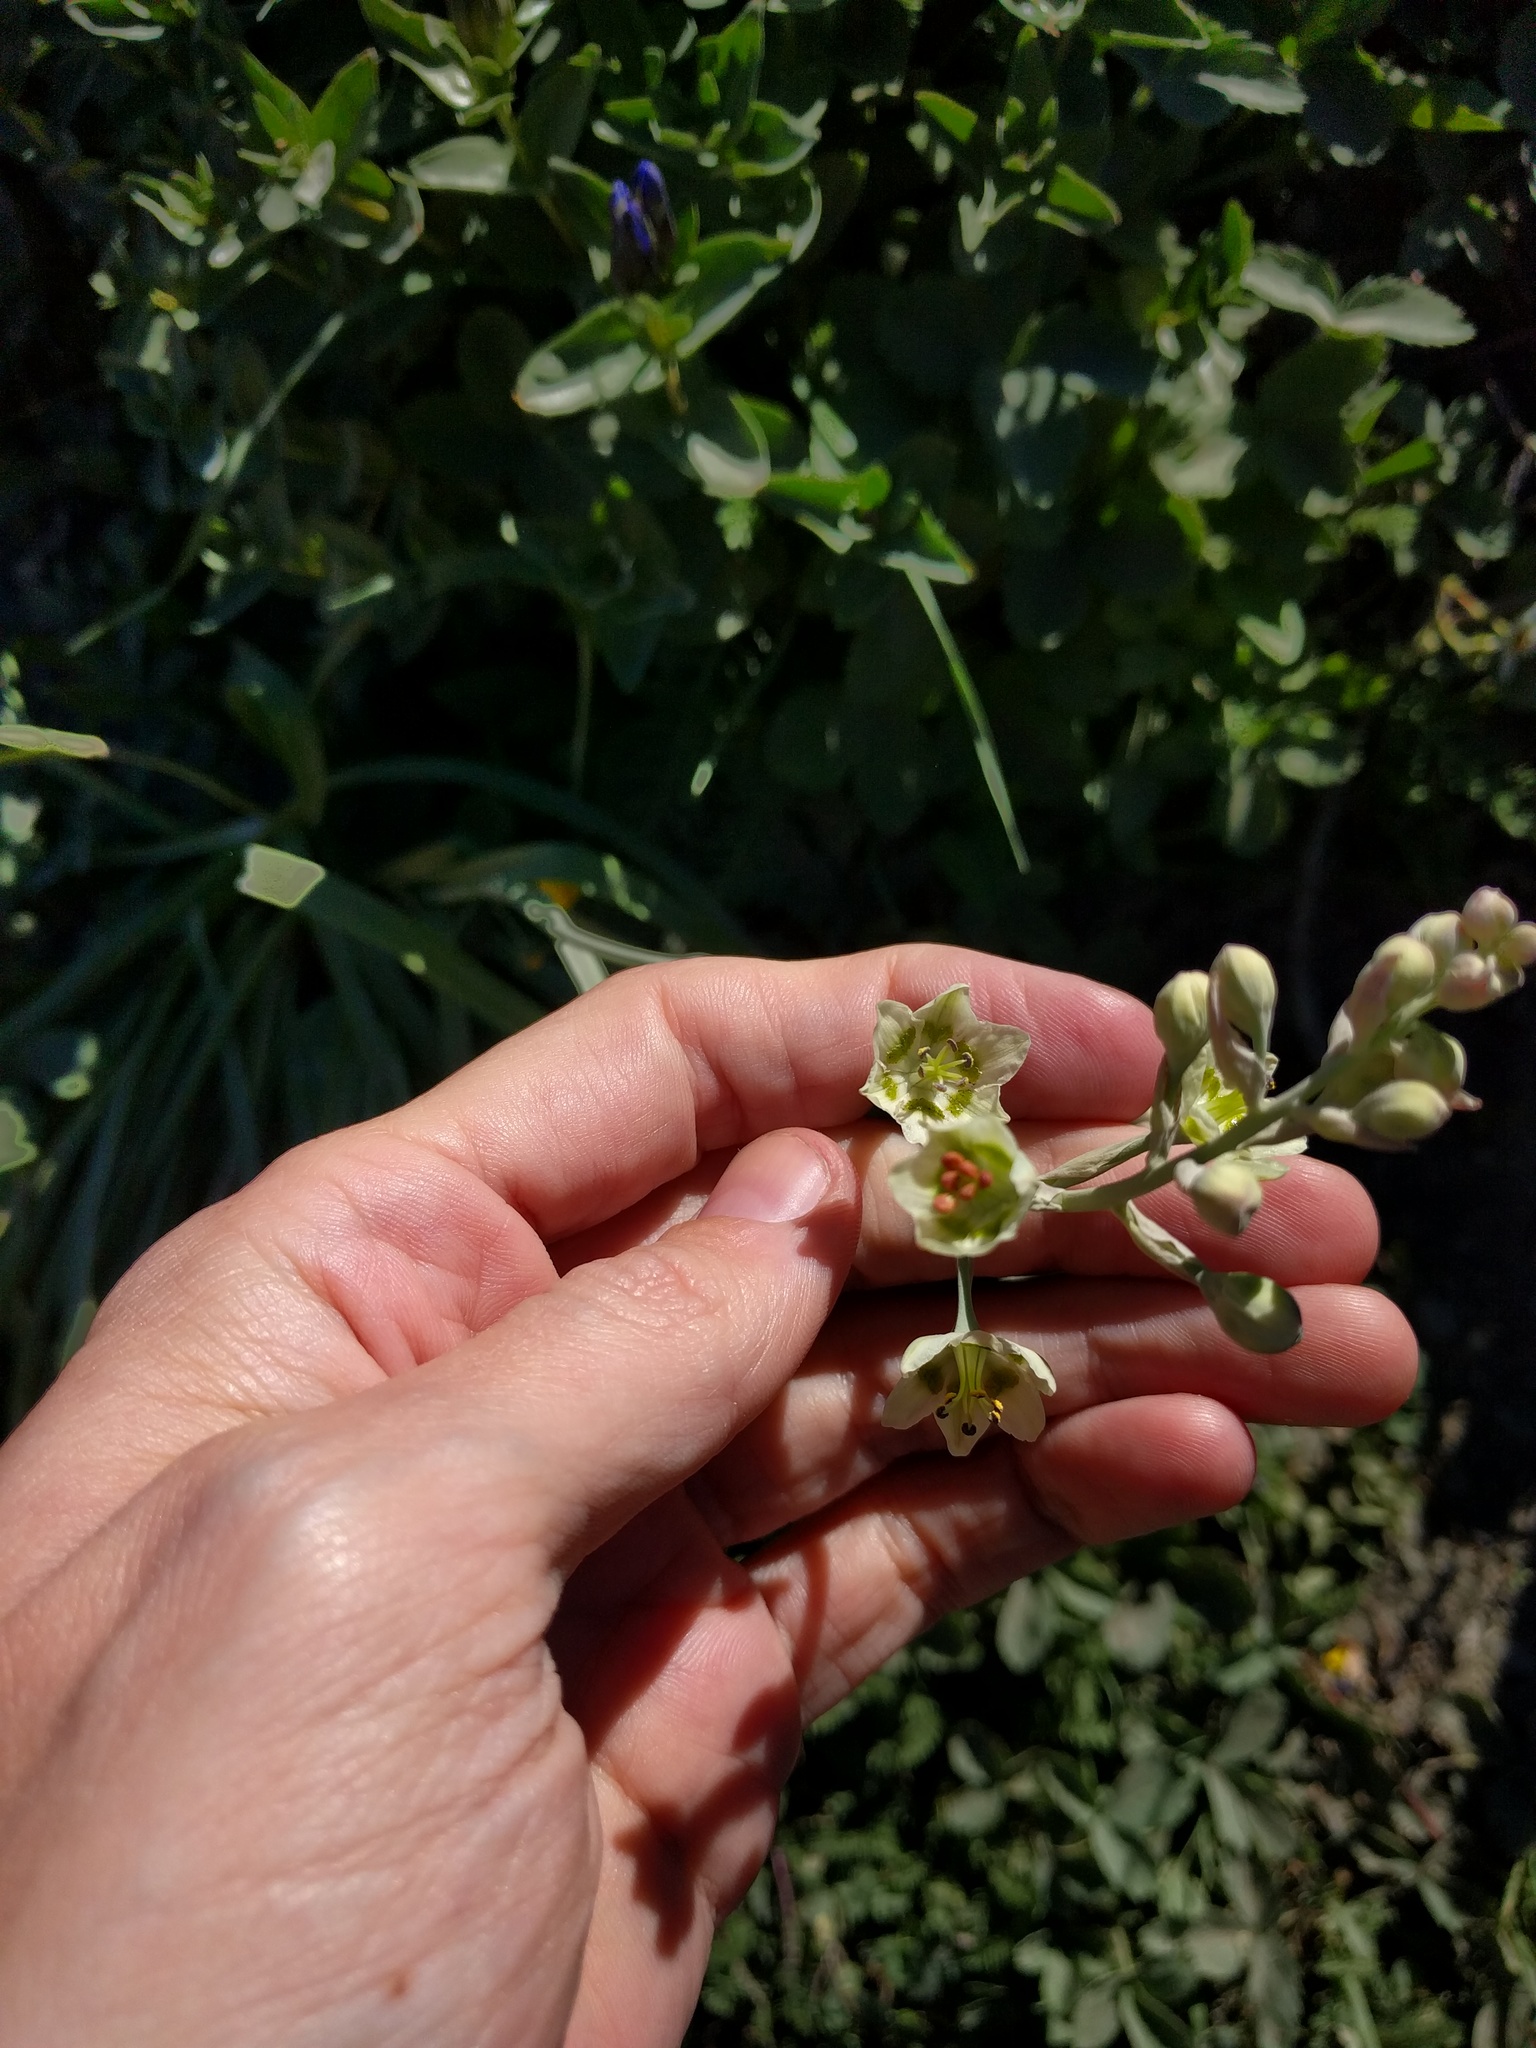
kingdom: Plantae
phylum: Tracheophyta
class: Liliopsida
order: Liliales
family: Melanthiaceae
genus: Anticlea
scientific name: Anticlea elegans
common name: Mountain death camas
